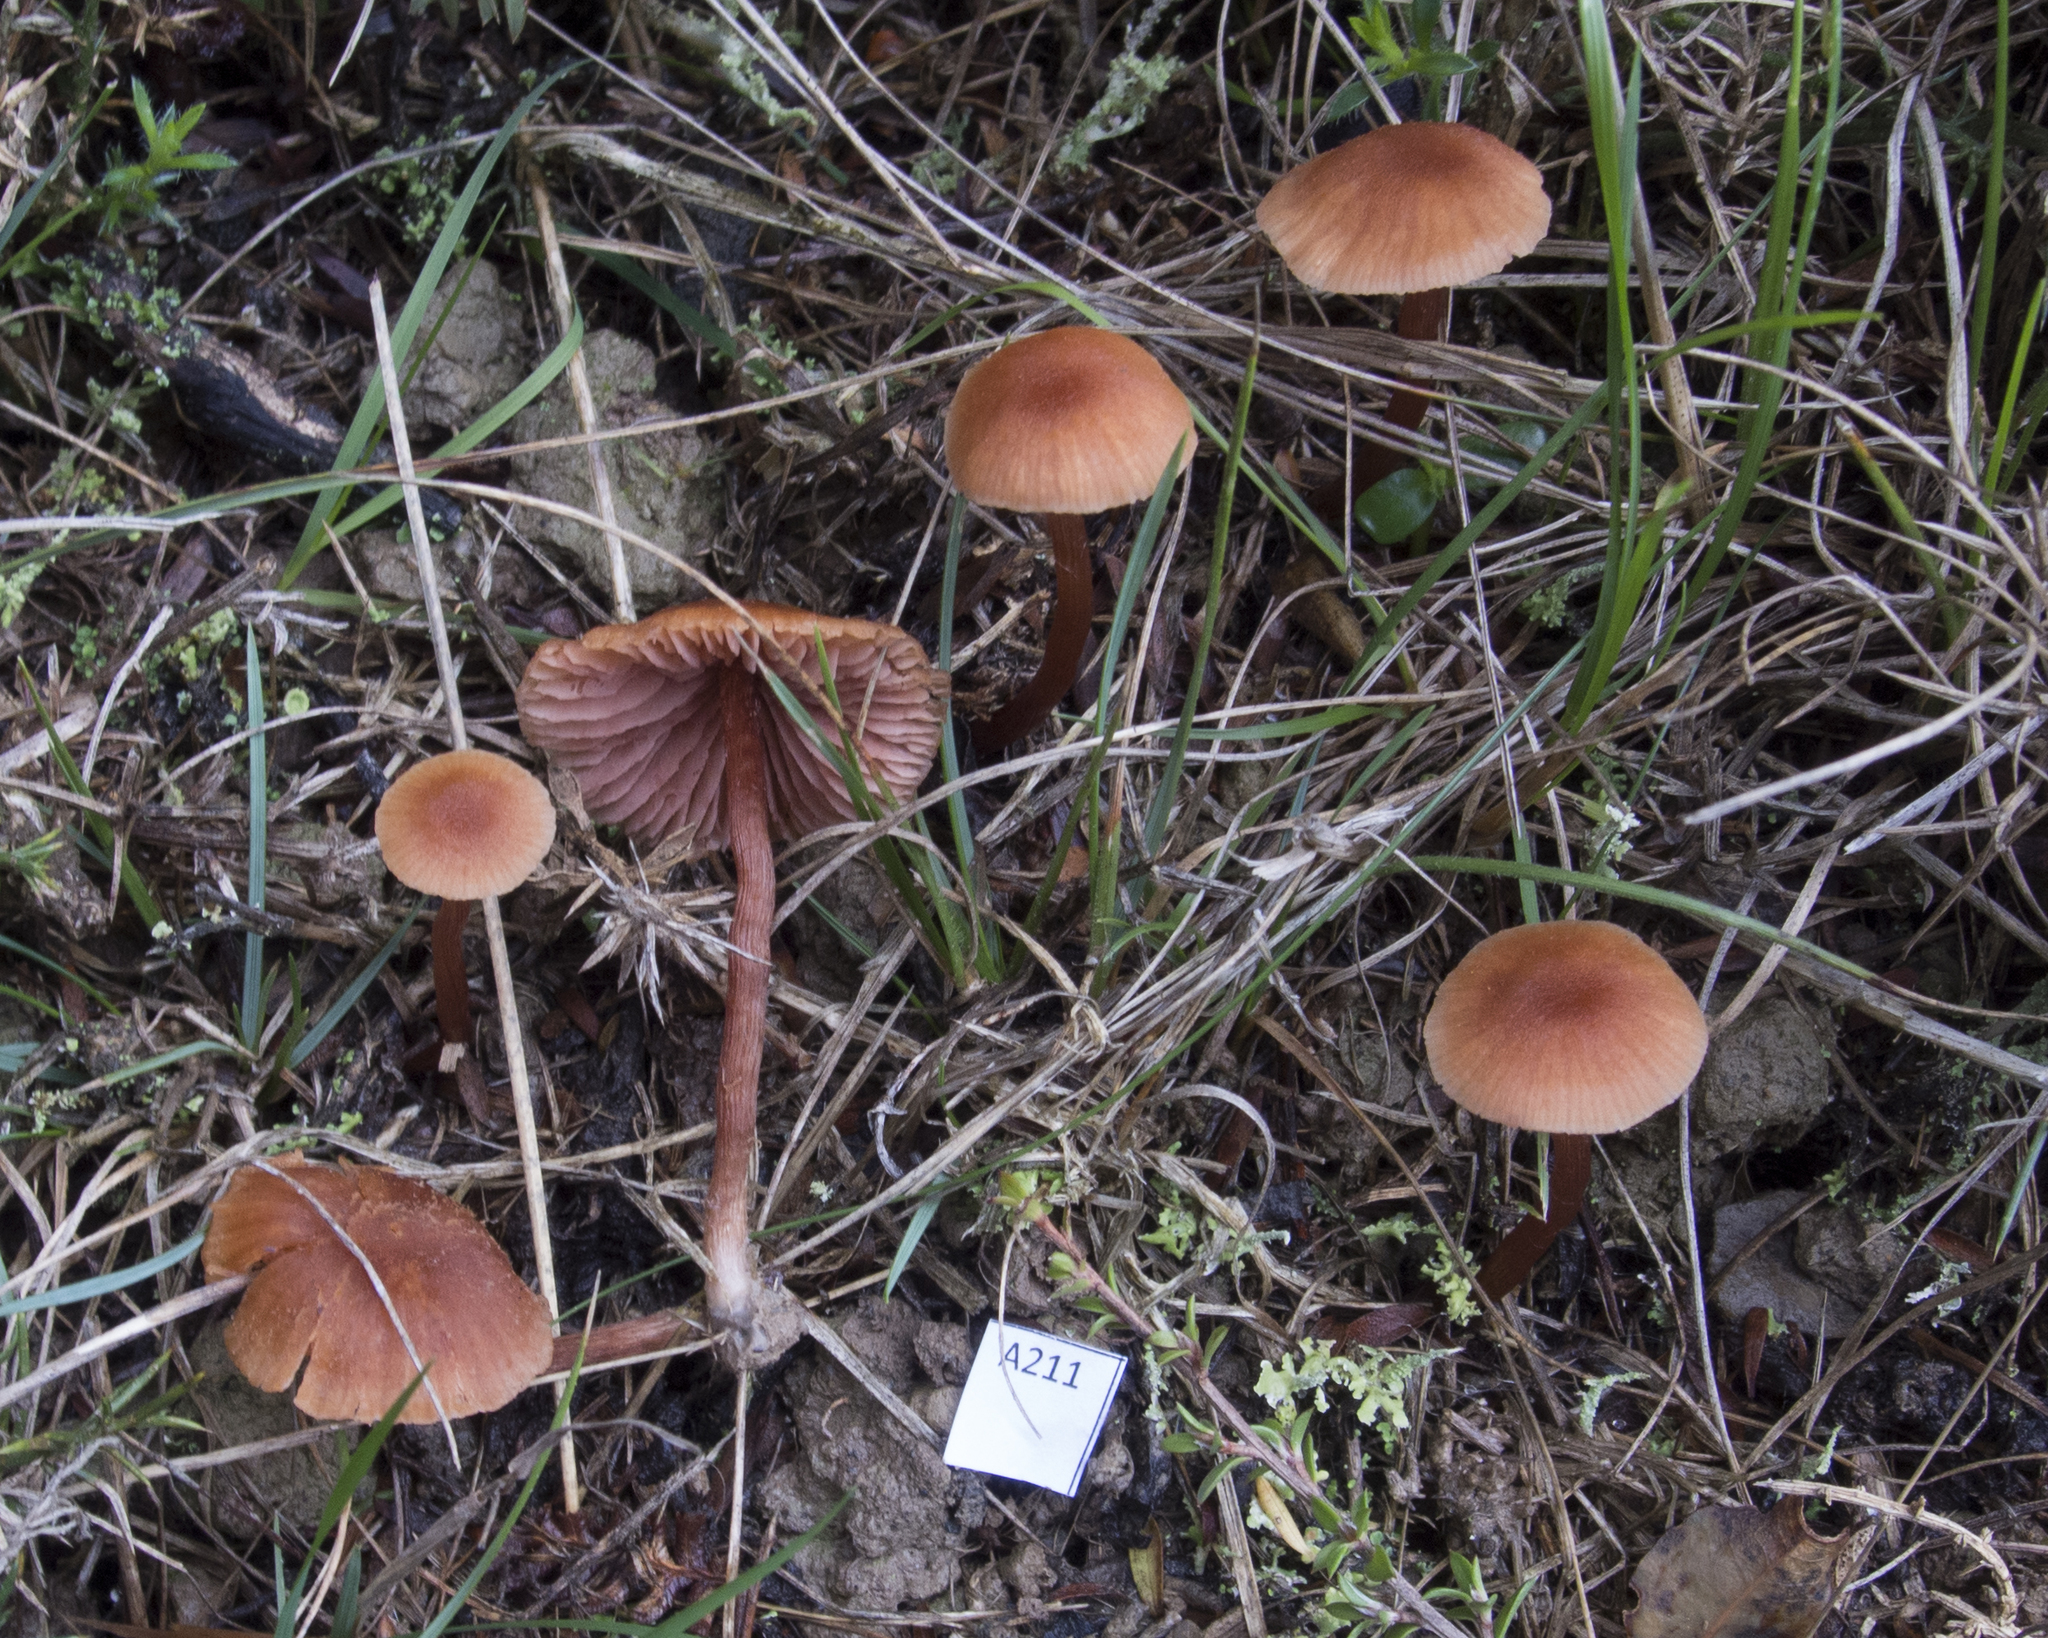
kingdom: Fungi
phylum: Basidiomycota
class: Agaricomycetes
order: Agaricales
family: Hydnangiaceae
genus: Laccaria
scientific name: Laccaria paraphysata
